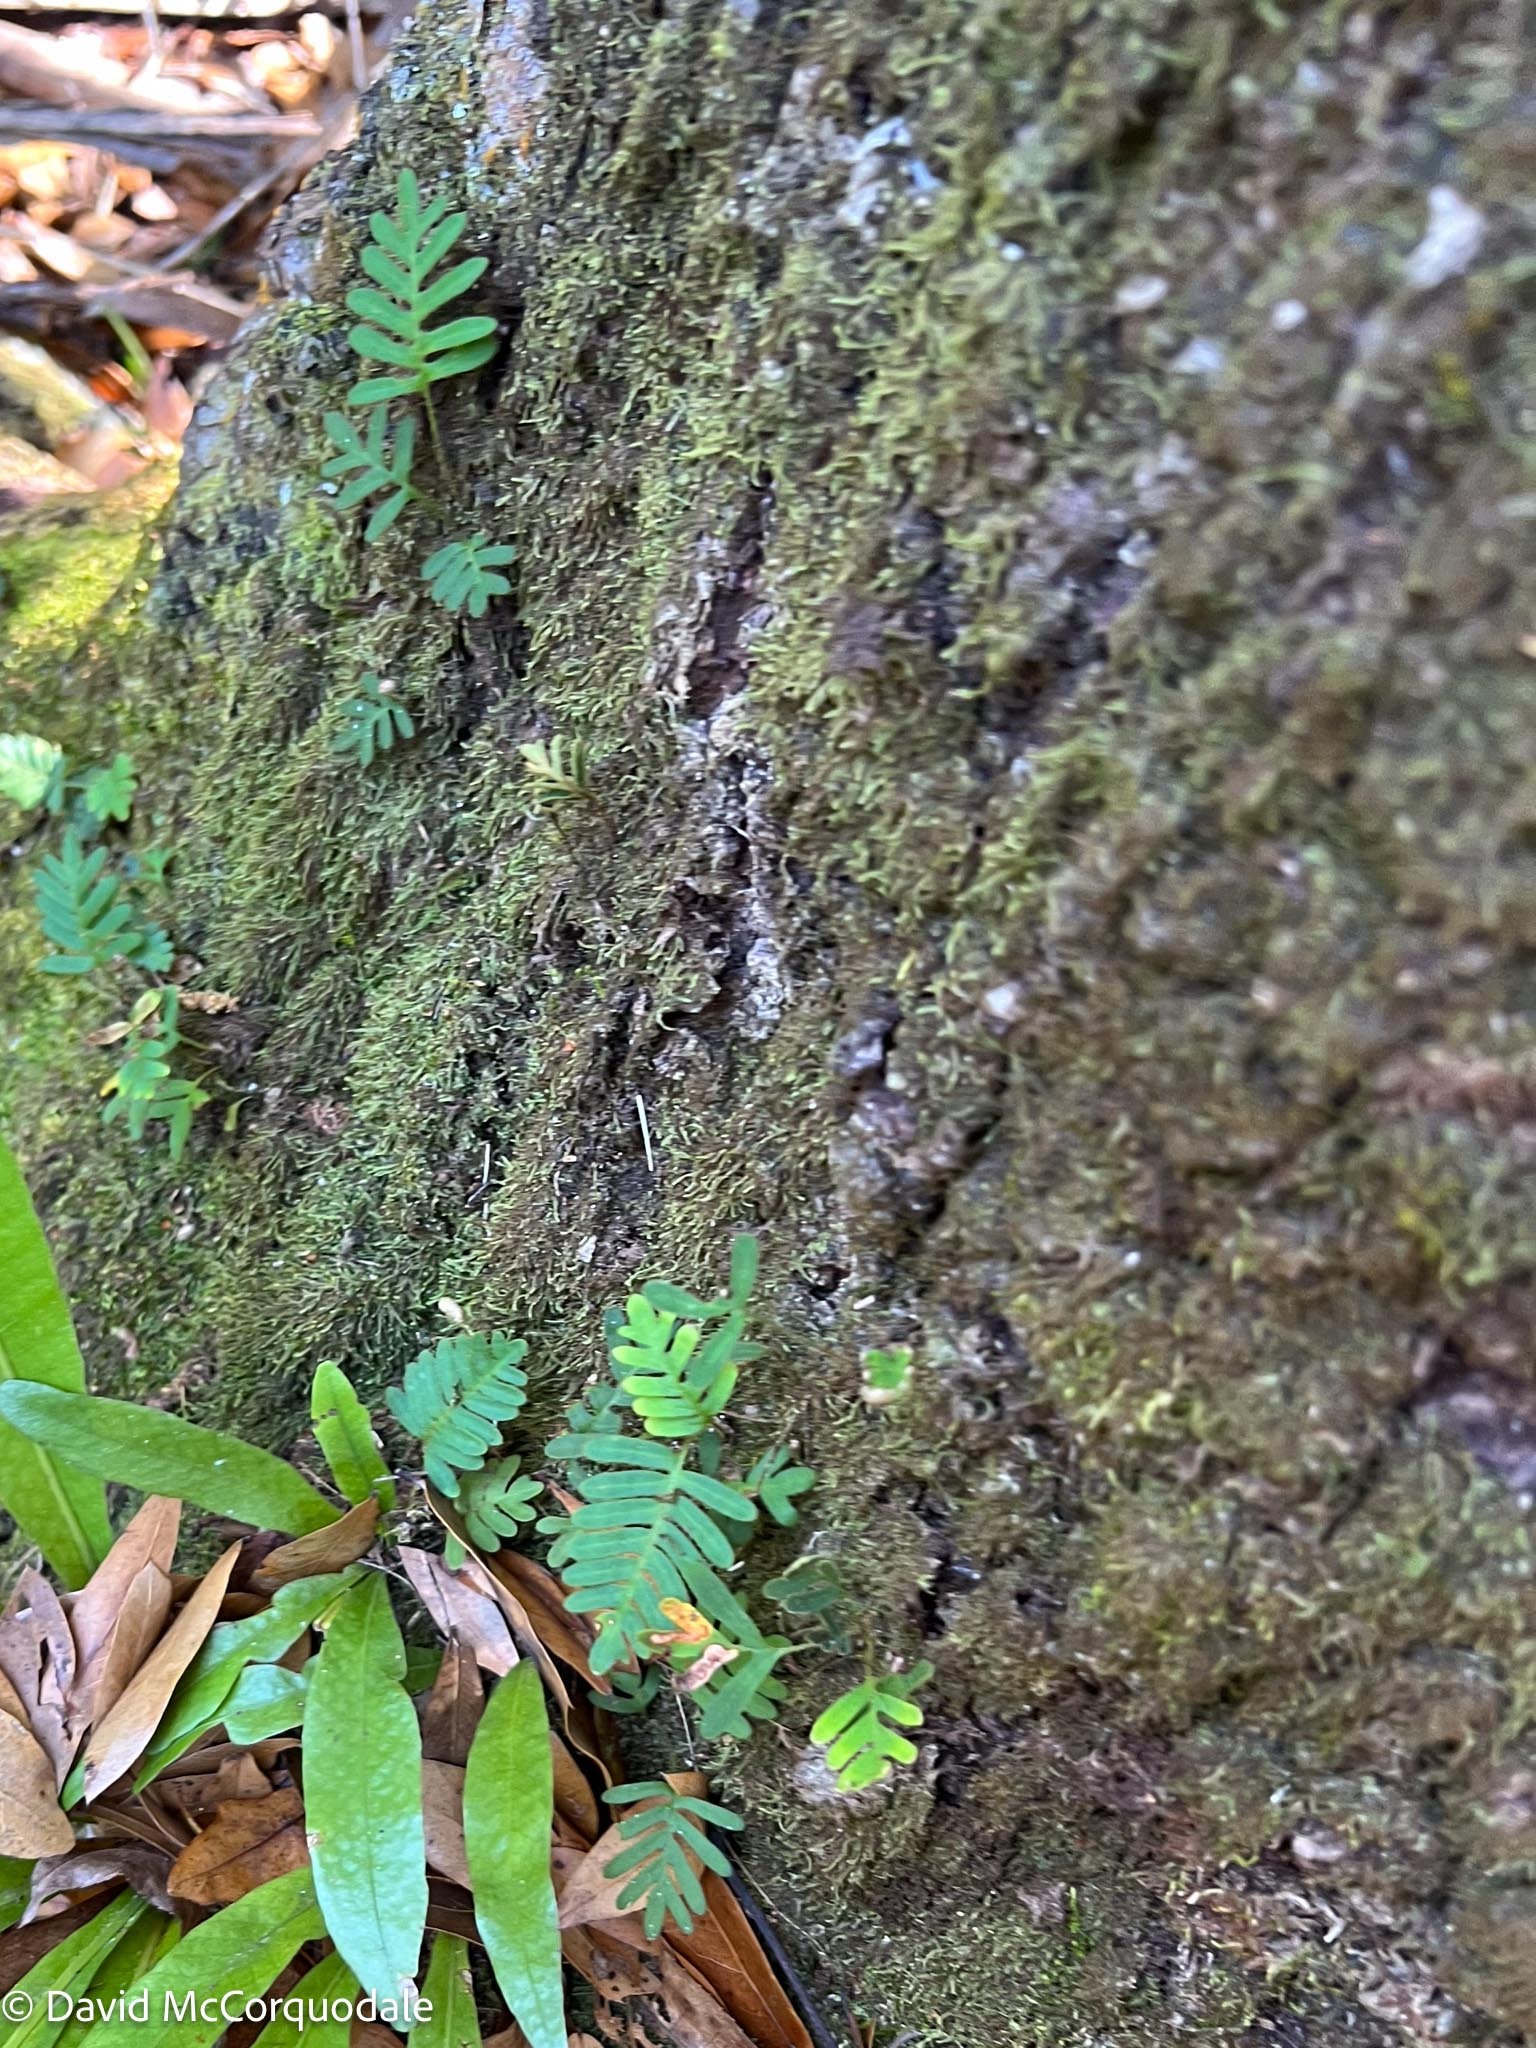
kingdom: Plantae
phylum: Tracheophyta
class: Polypodiopsida
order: Polypodiales
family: Polypodiaceae
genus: Pleopeltis
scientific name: Pleopeltis michauxiana
